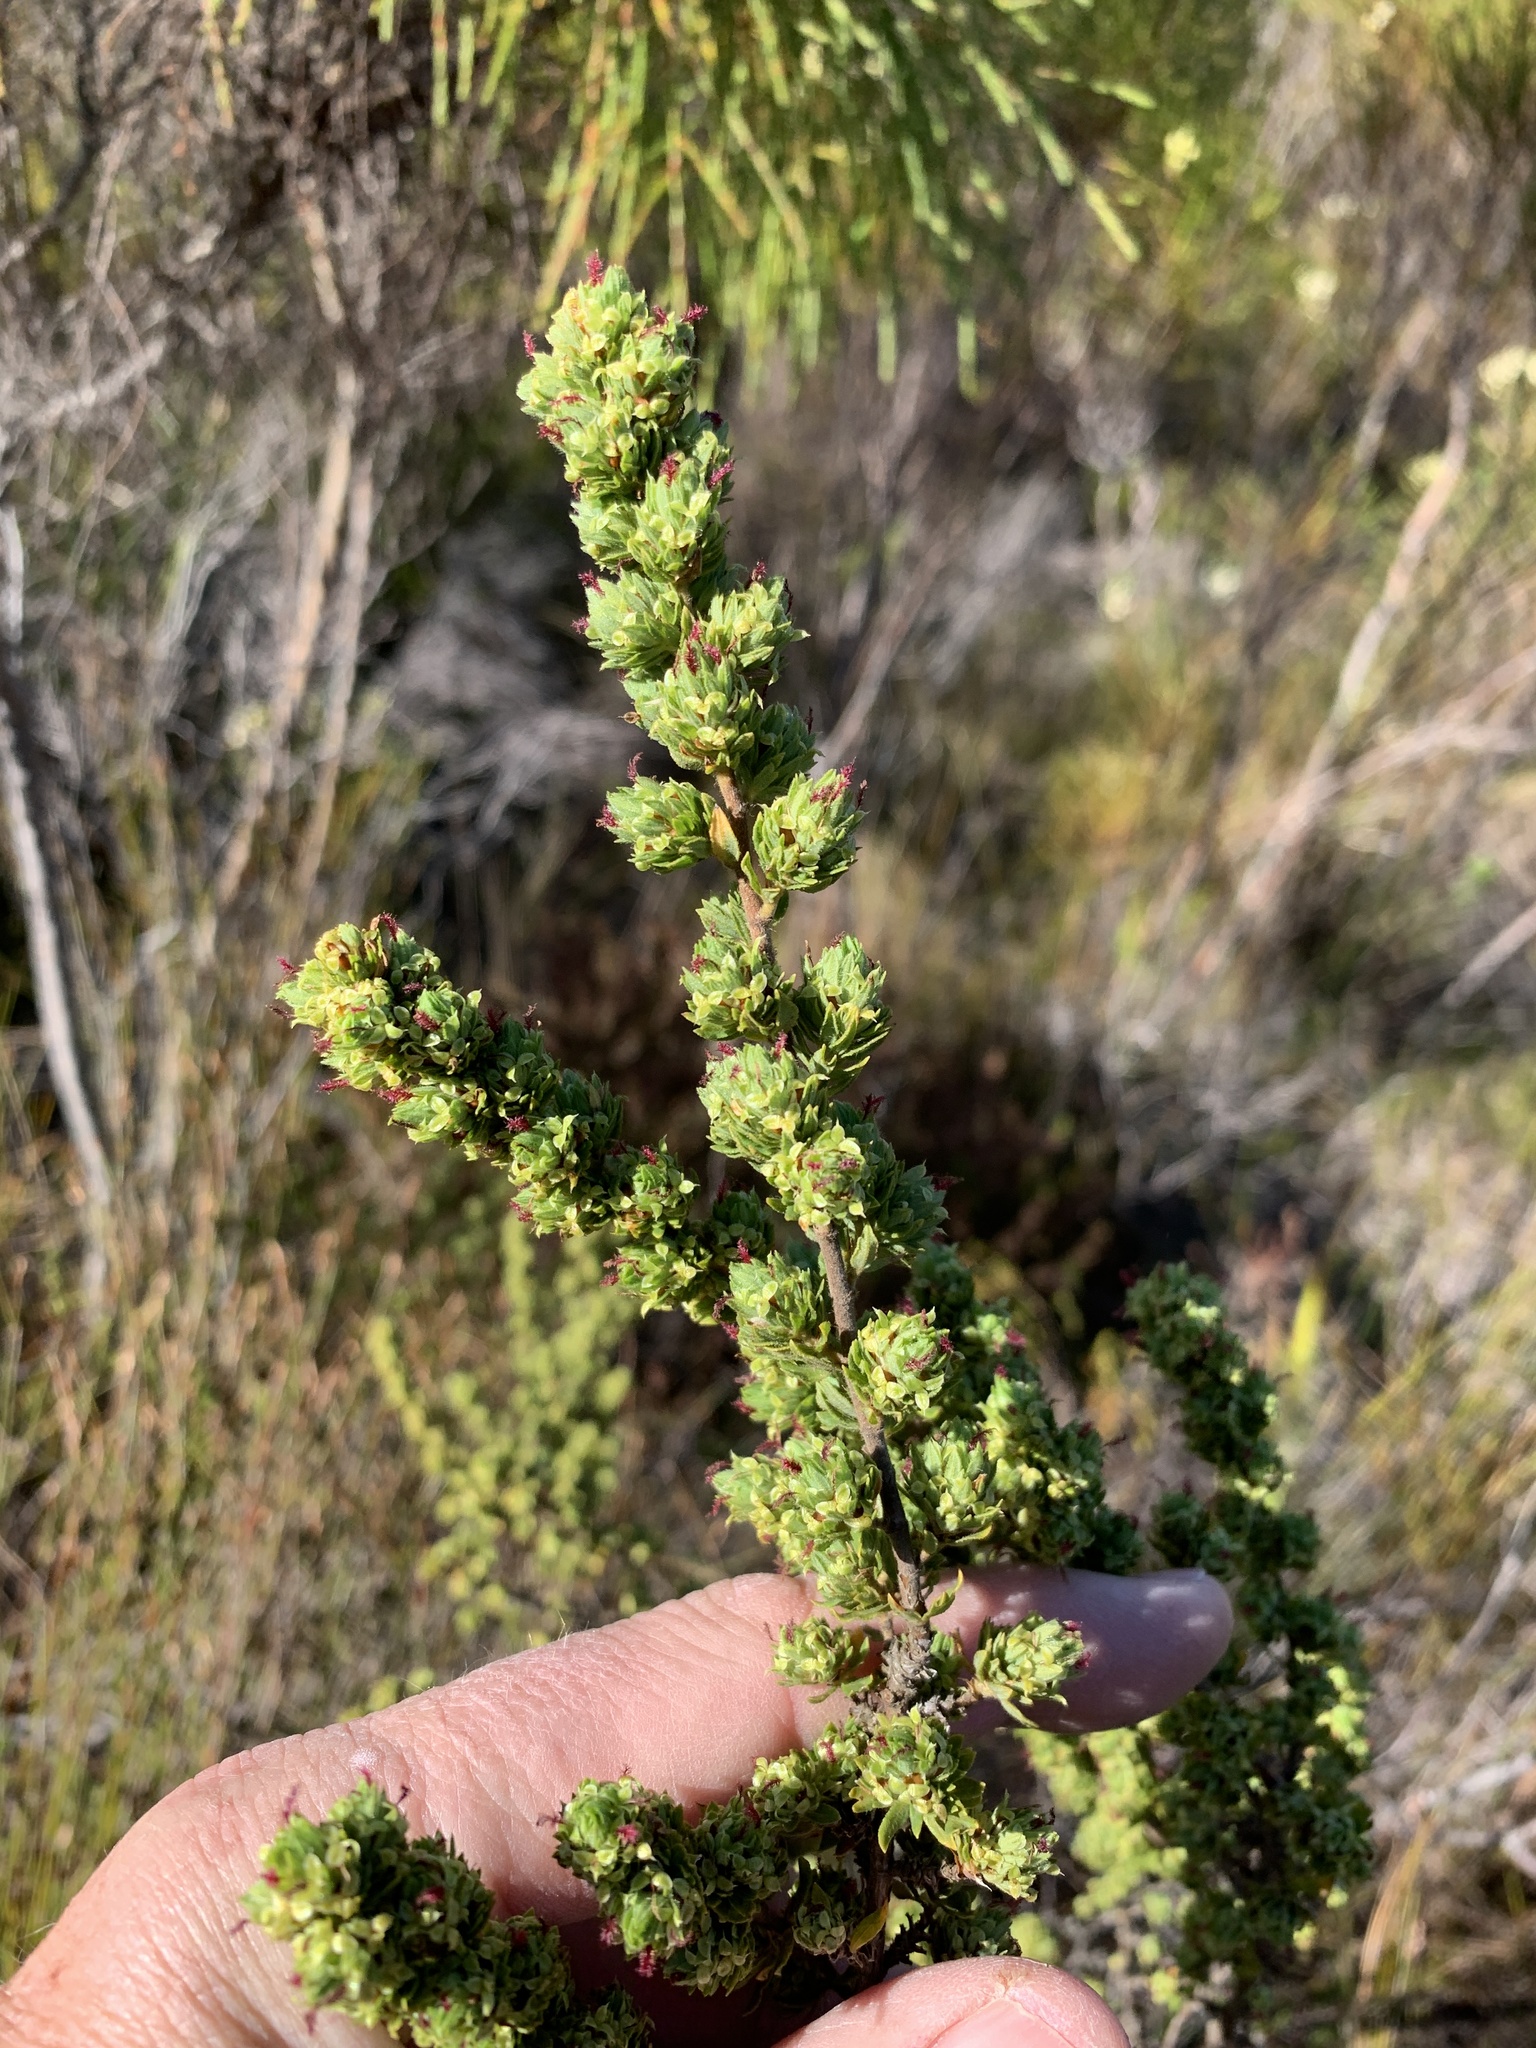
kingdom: Plantae
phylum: Tracheophyta
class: Magnoliopsida
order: Rosales
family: Rosaceae
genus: Cliffortia
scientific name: Cliffortia polygonifolia
